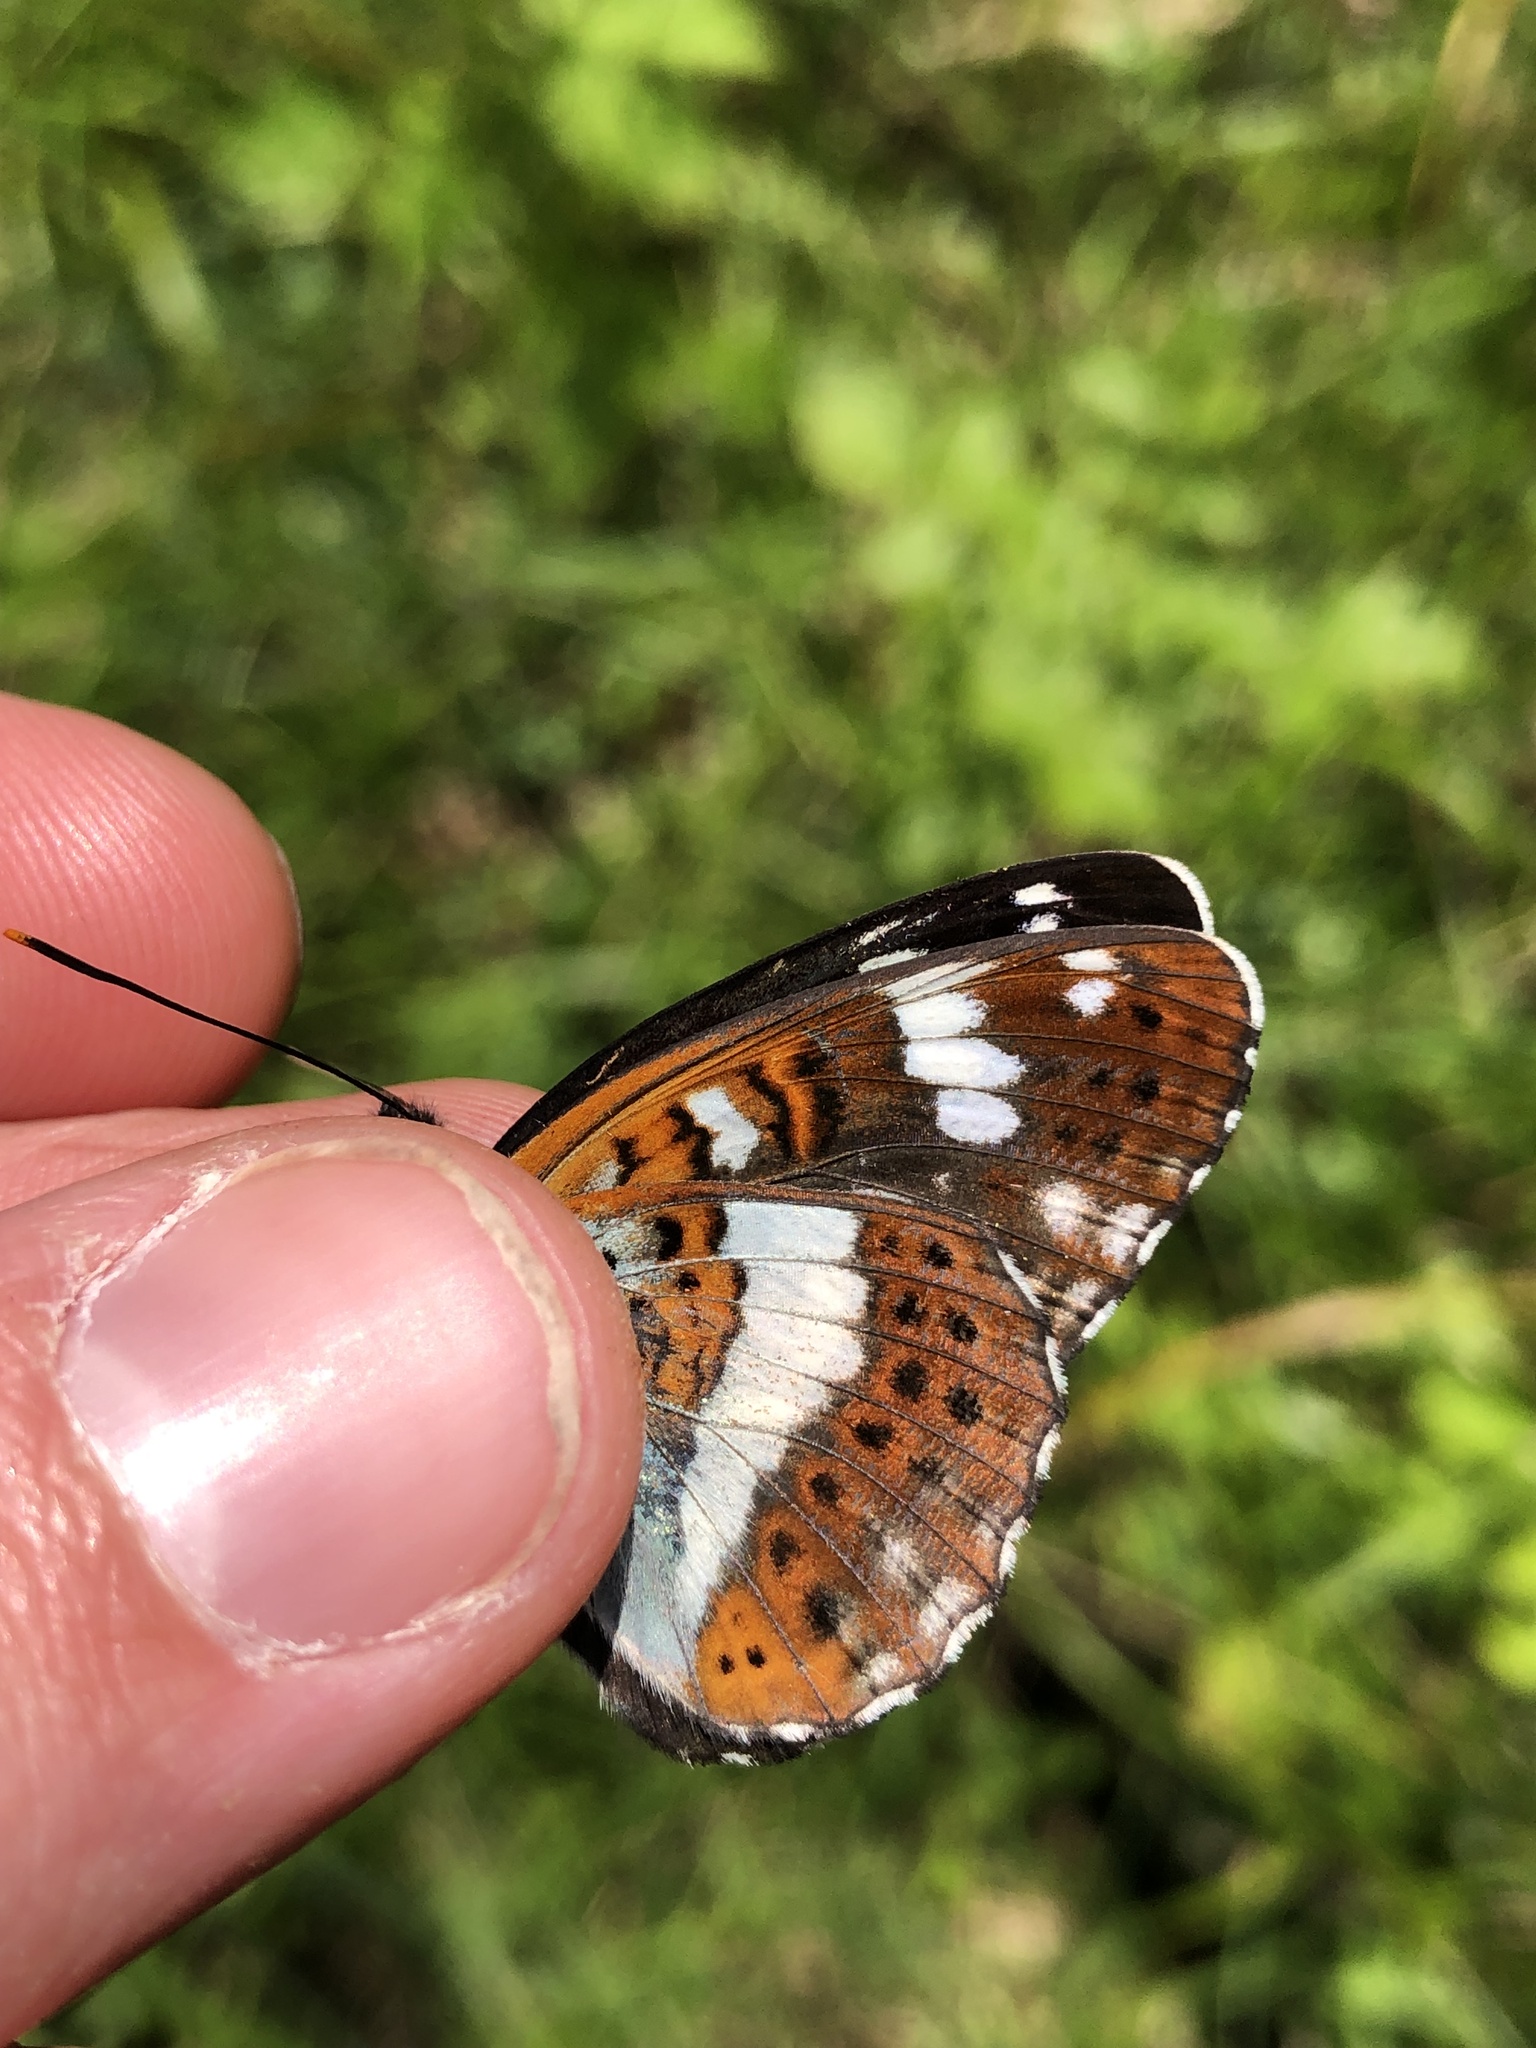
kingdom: Animalia
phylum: Arthropoda
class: Insecta
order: Lepidoptera
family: Nymphalidae
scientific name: Nymphalidae
